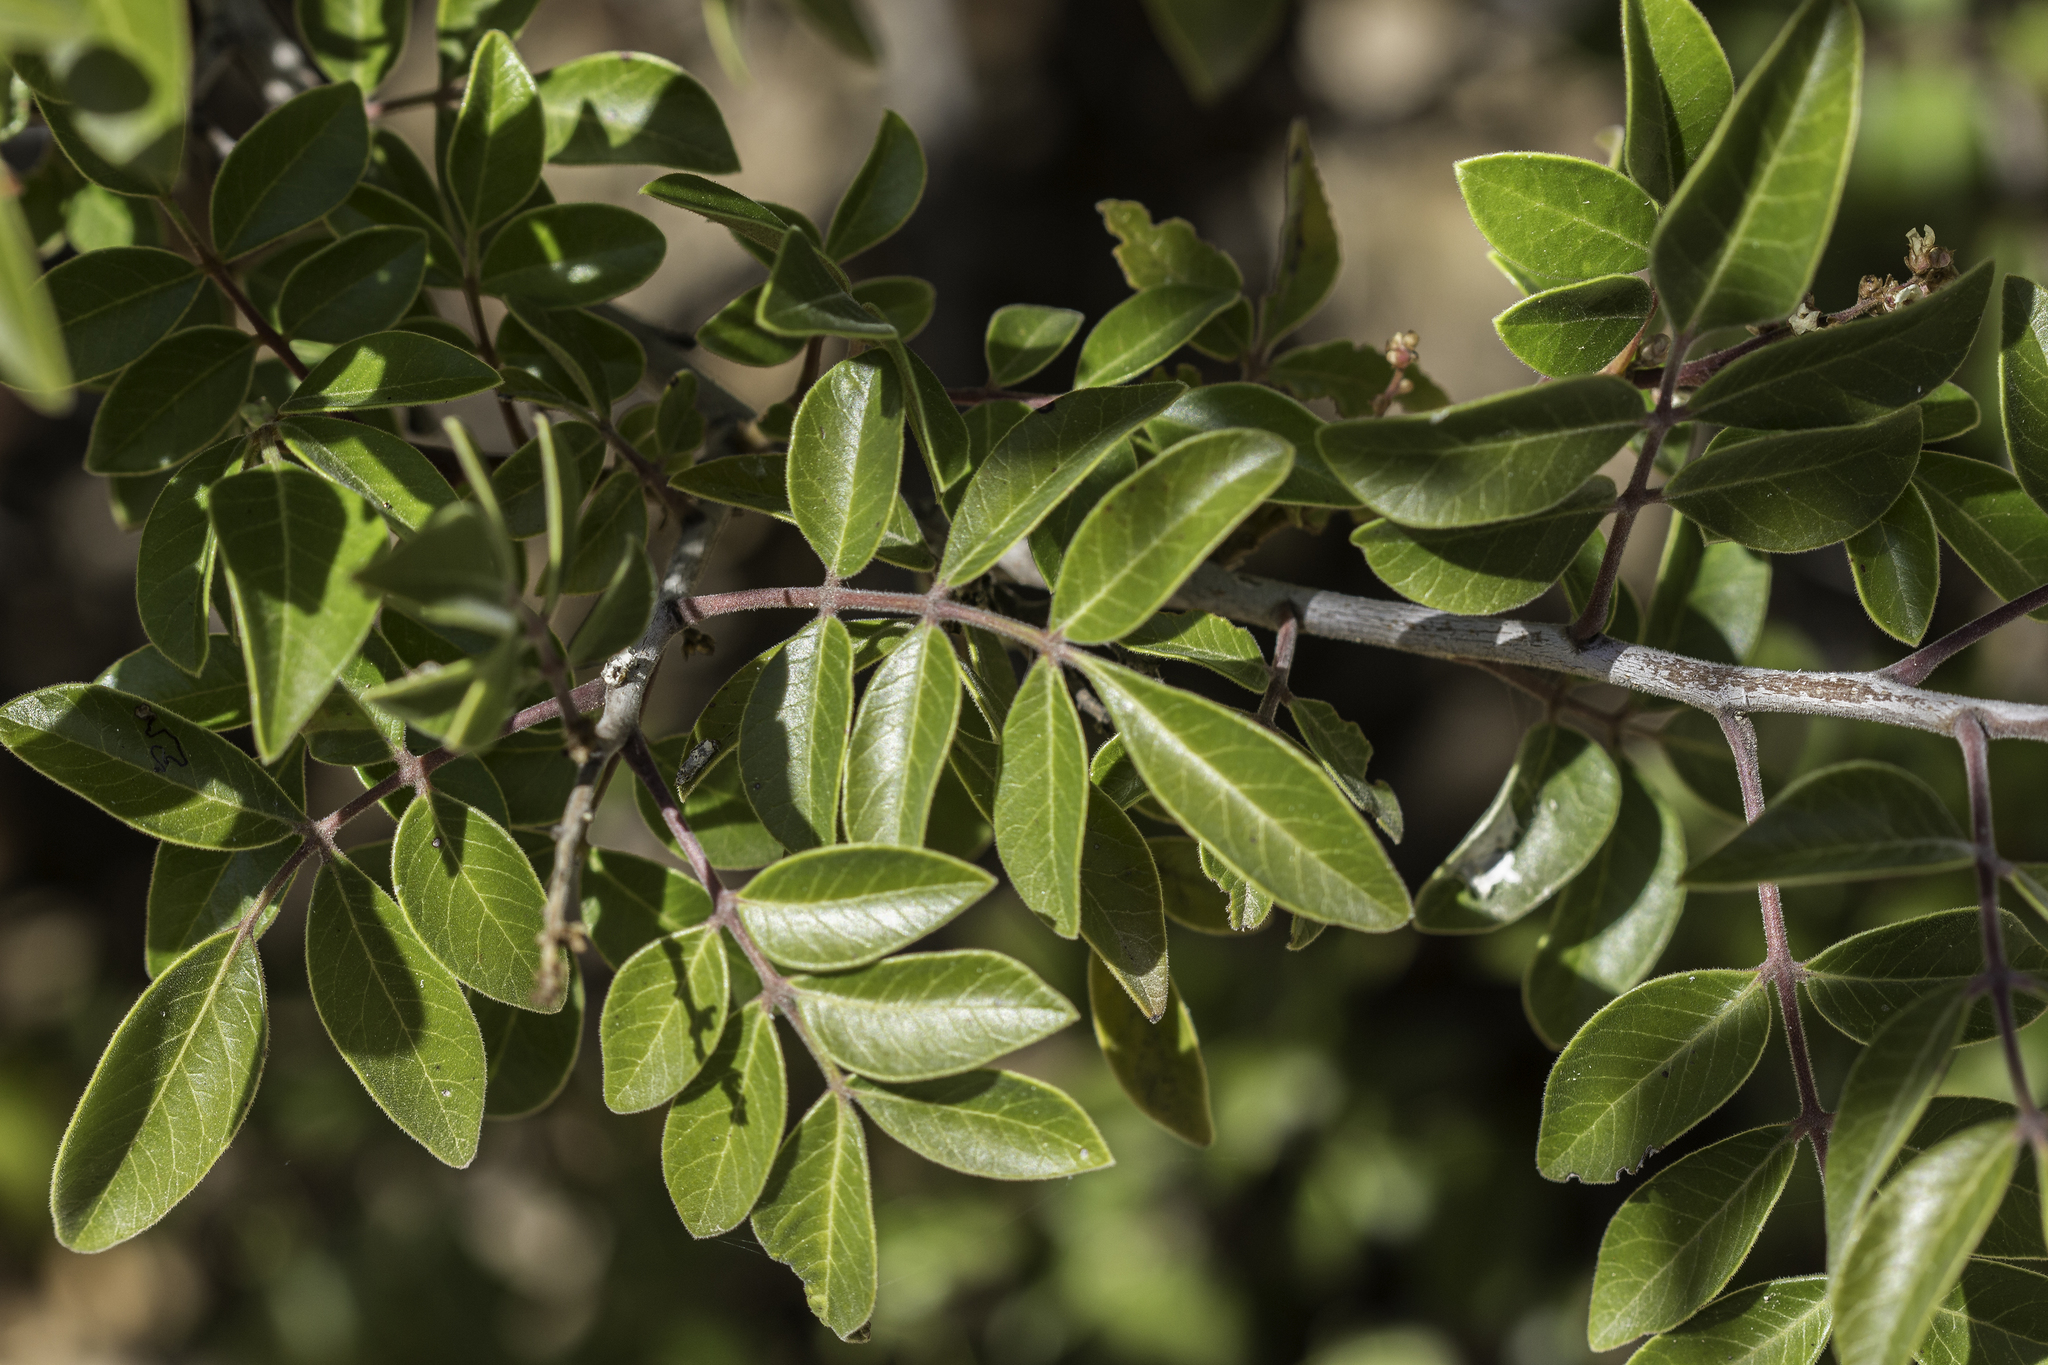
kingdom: Plantae
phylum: Tracheophyta
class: Magnoliopsida
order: Sapindales
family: Anacardiaceae
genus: Rhus
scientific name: Rhus virens
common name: Evergreen sumac
